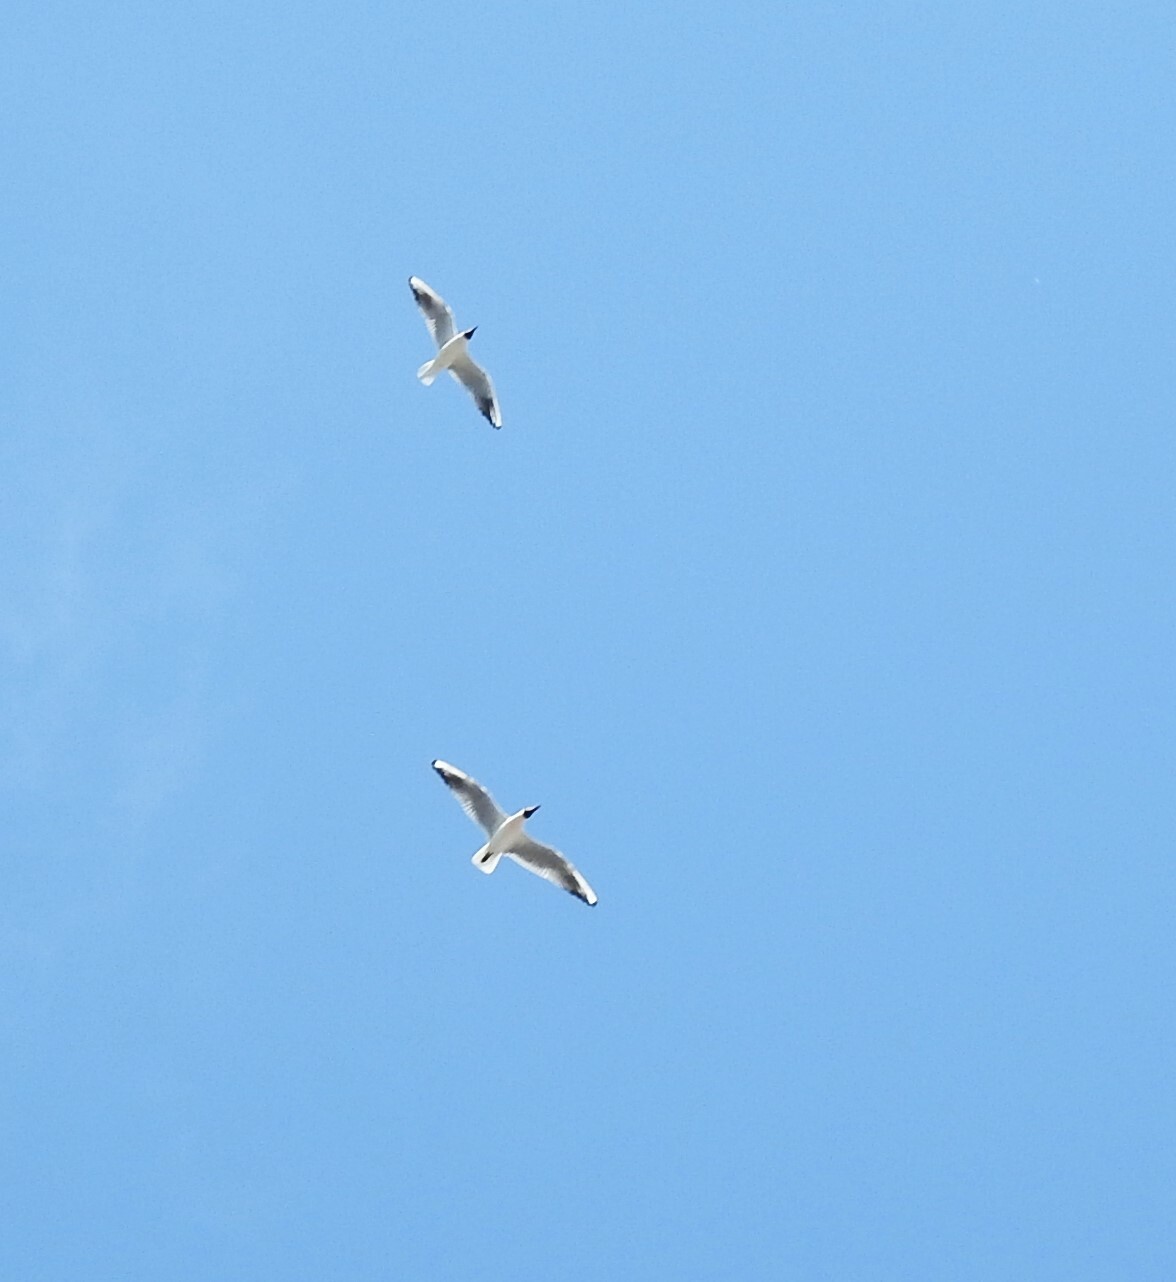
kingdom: Animalia
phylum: Chordata
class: Aves
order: Charadriiformes
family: Laridae
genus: Chroicocephalus
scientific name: Chroicocephalus ridibundus
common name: Black-headed gull
